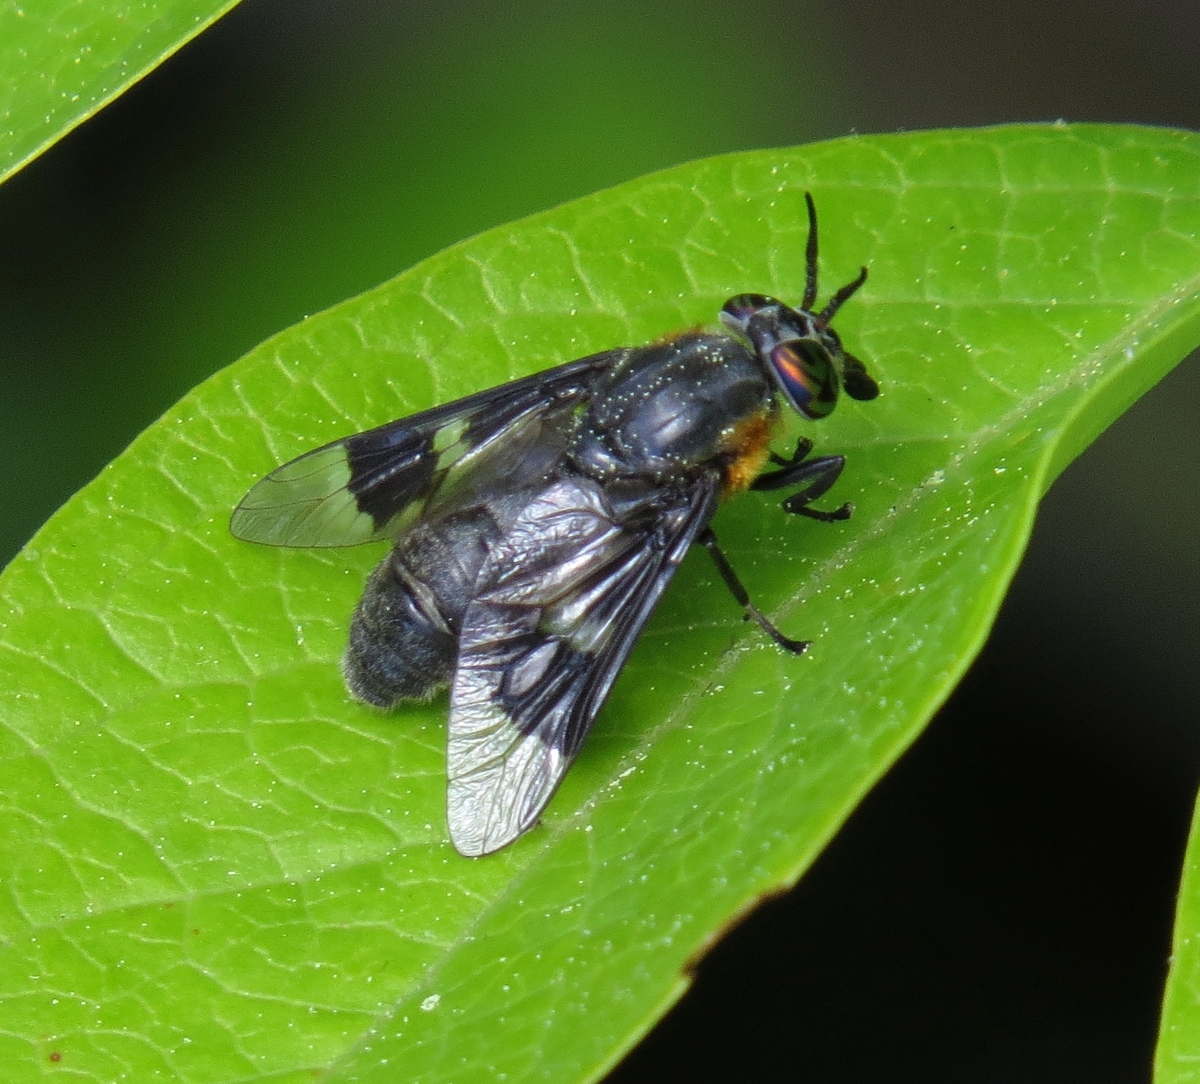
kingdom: Animalia
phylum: Arthropoda
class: Insecta
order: Diptera
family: Tabanidae
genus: Chrysops
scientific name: Chrysops cincticornis
